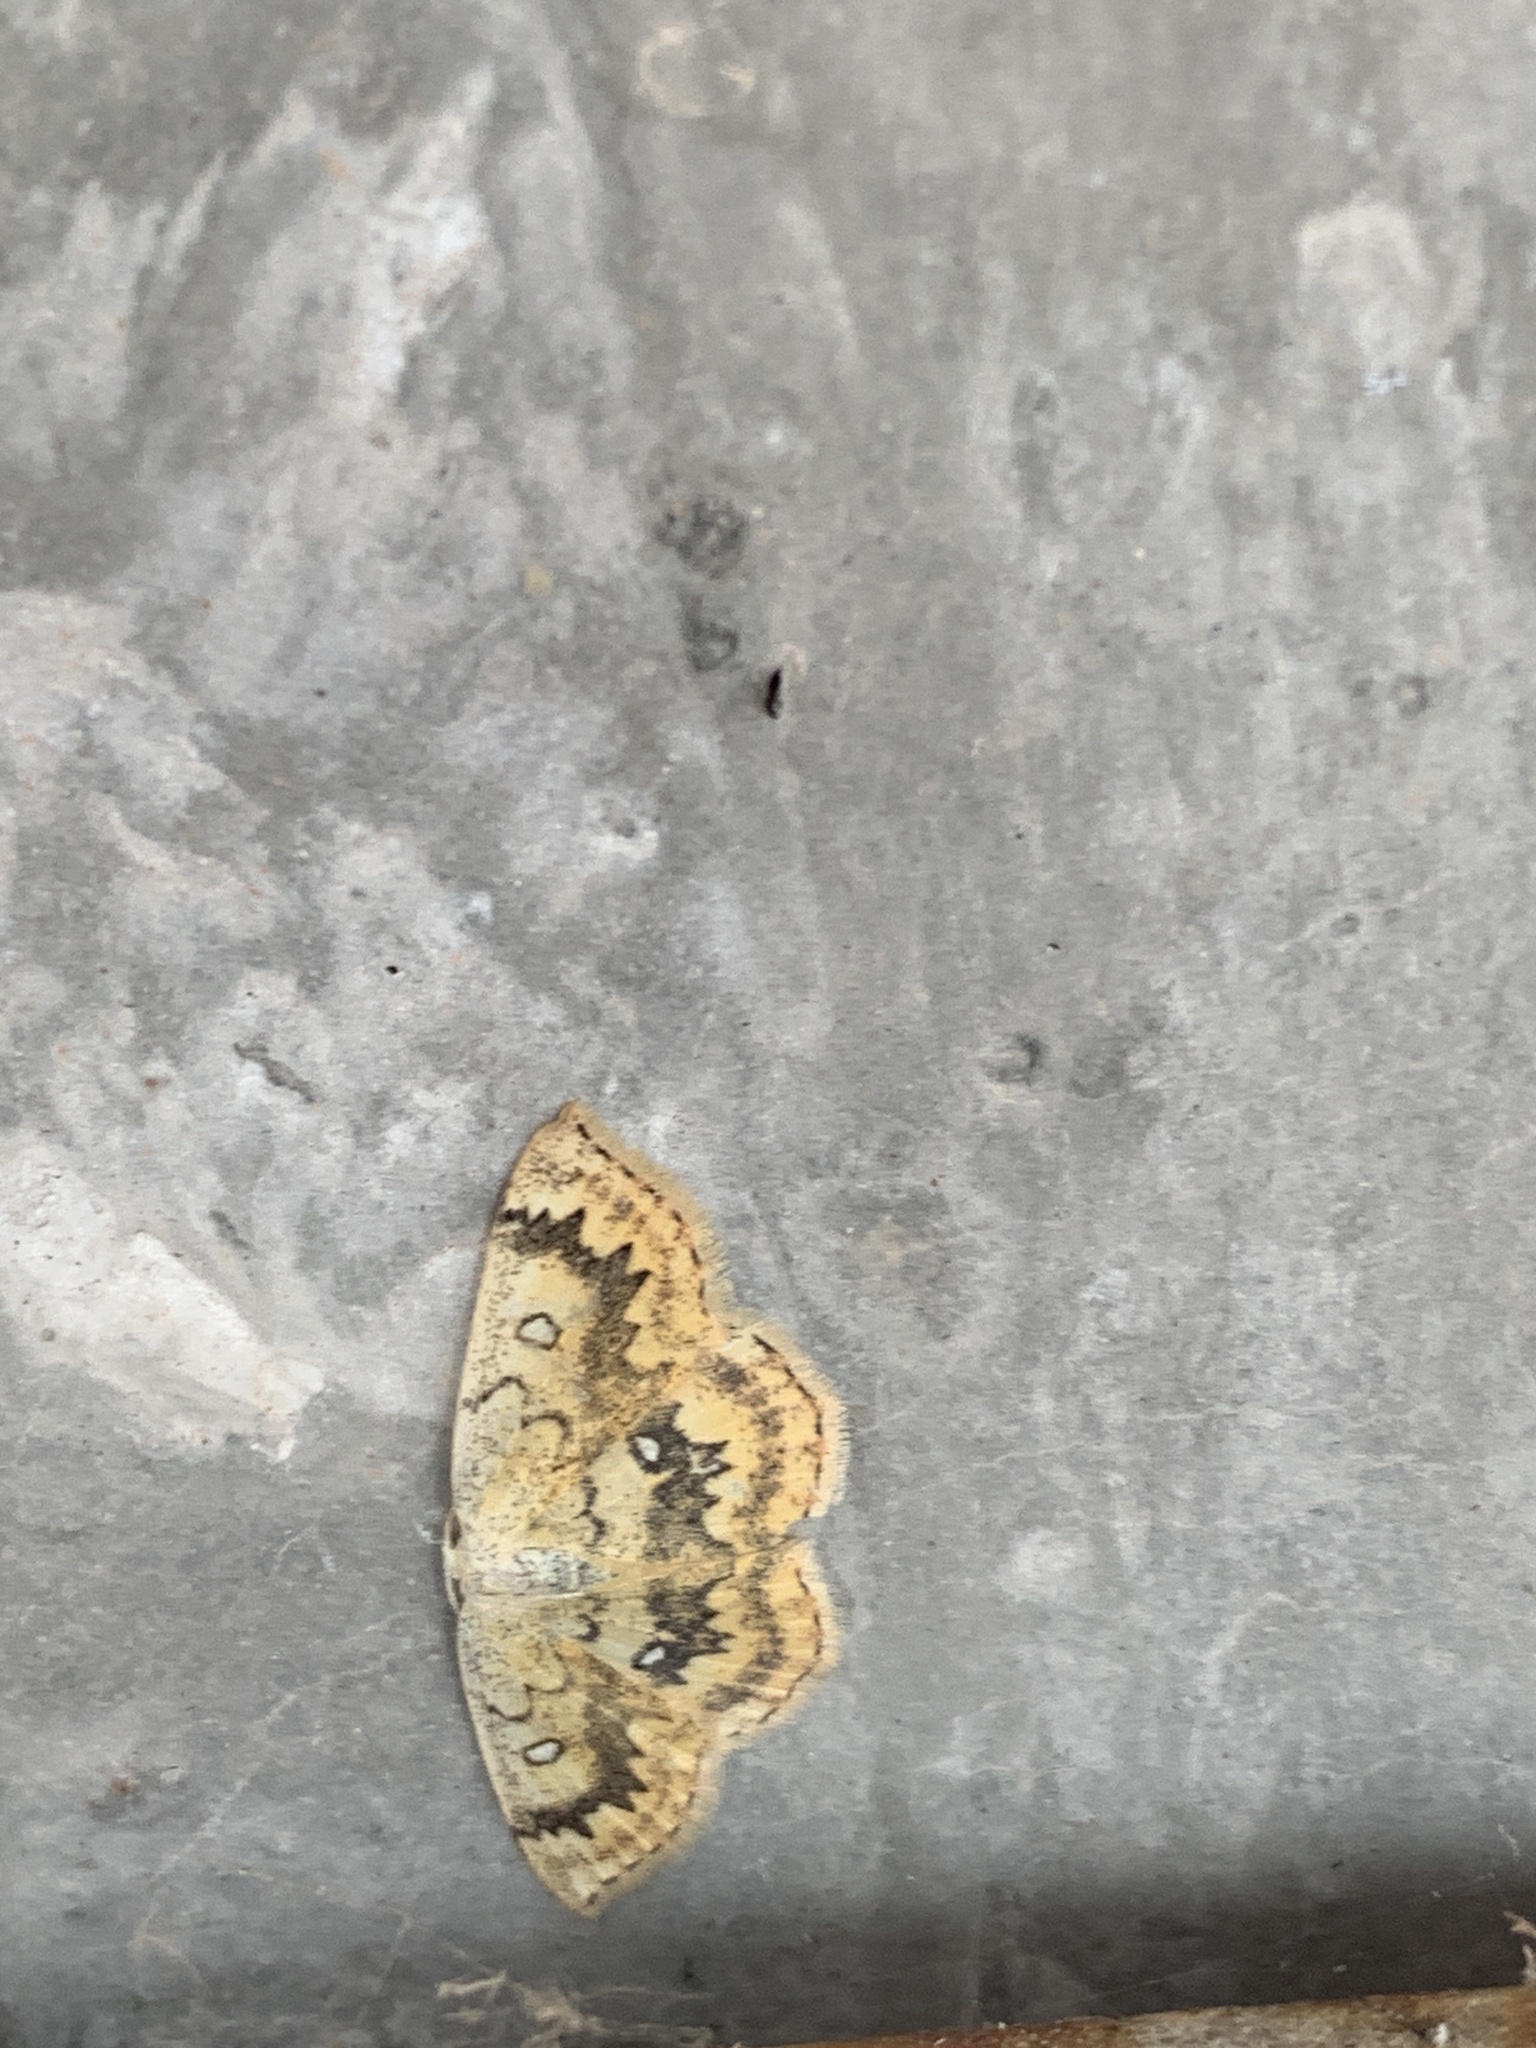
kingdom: Animalia
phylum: Arthropoda
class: Insecta
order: Lepidoptera
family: Geometridae
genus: Cyclophora
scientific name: Cyclophora annularia
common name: Mocha
